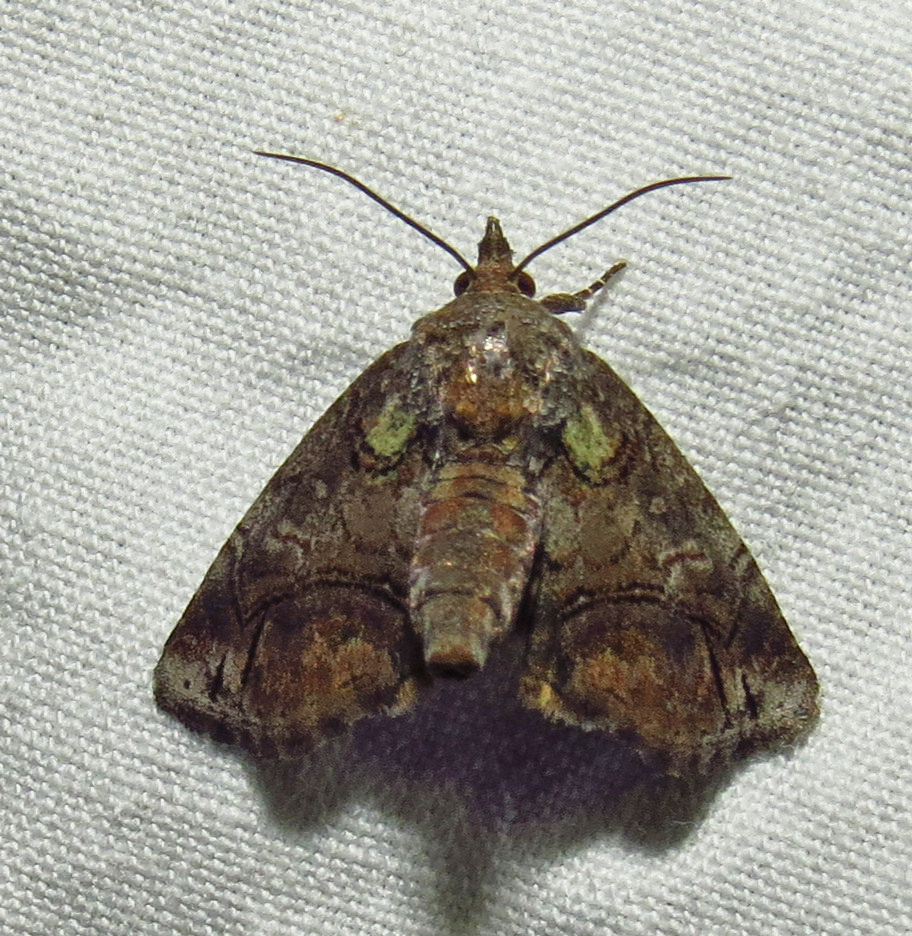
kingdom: Animalia
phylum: Arthropoda
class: Insecta
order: Lepidoptera
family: Euteliidae
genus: Paectes
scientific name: Paectes pygmaea
